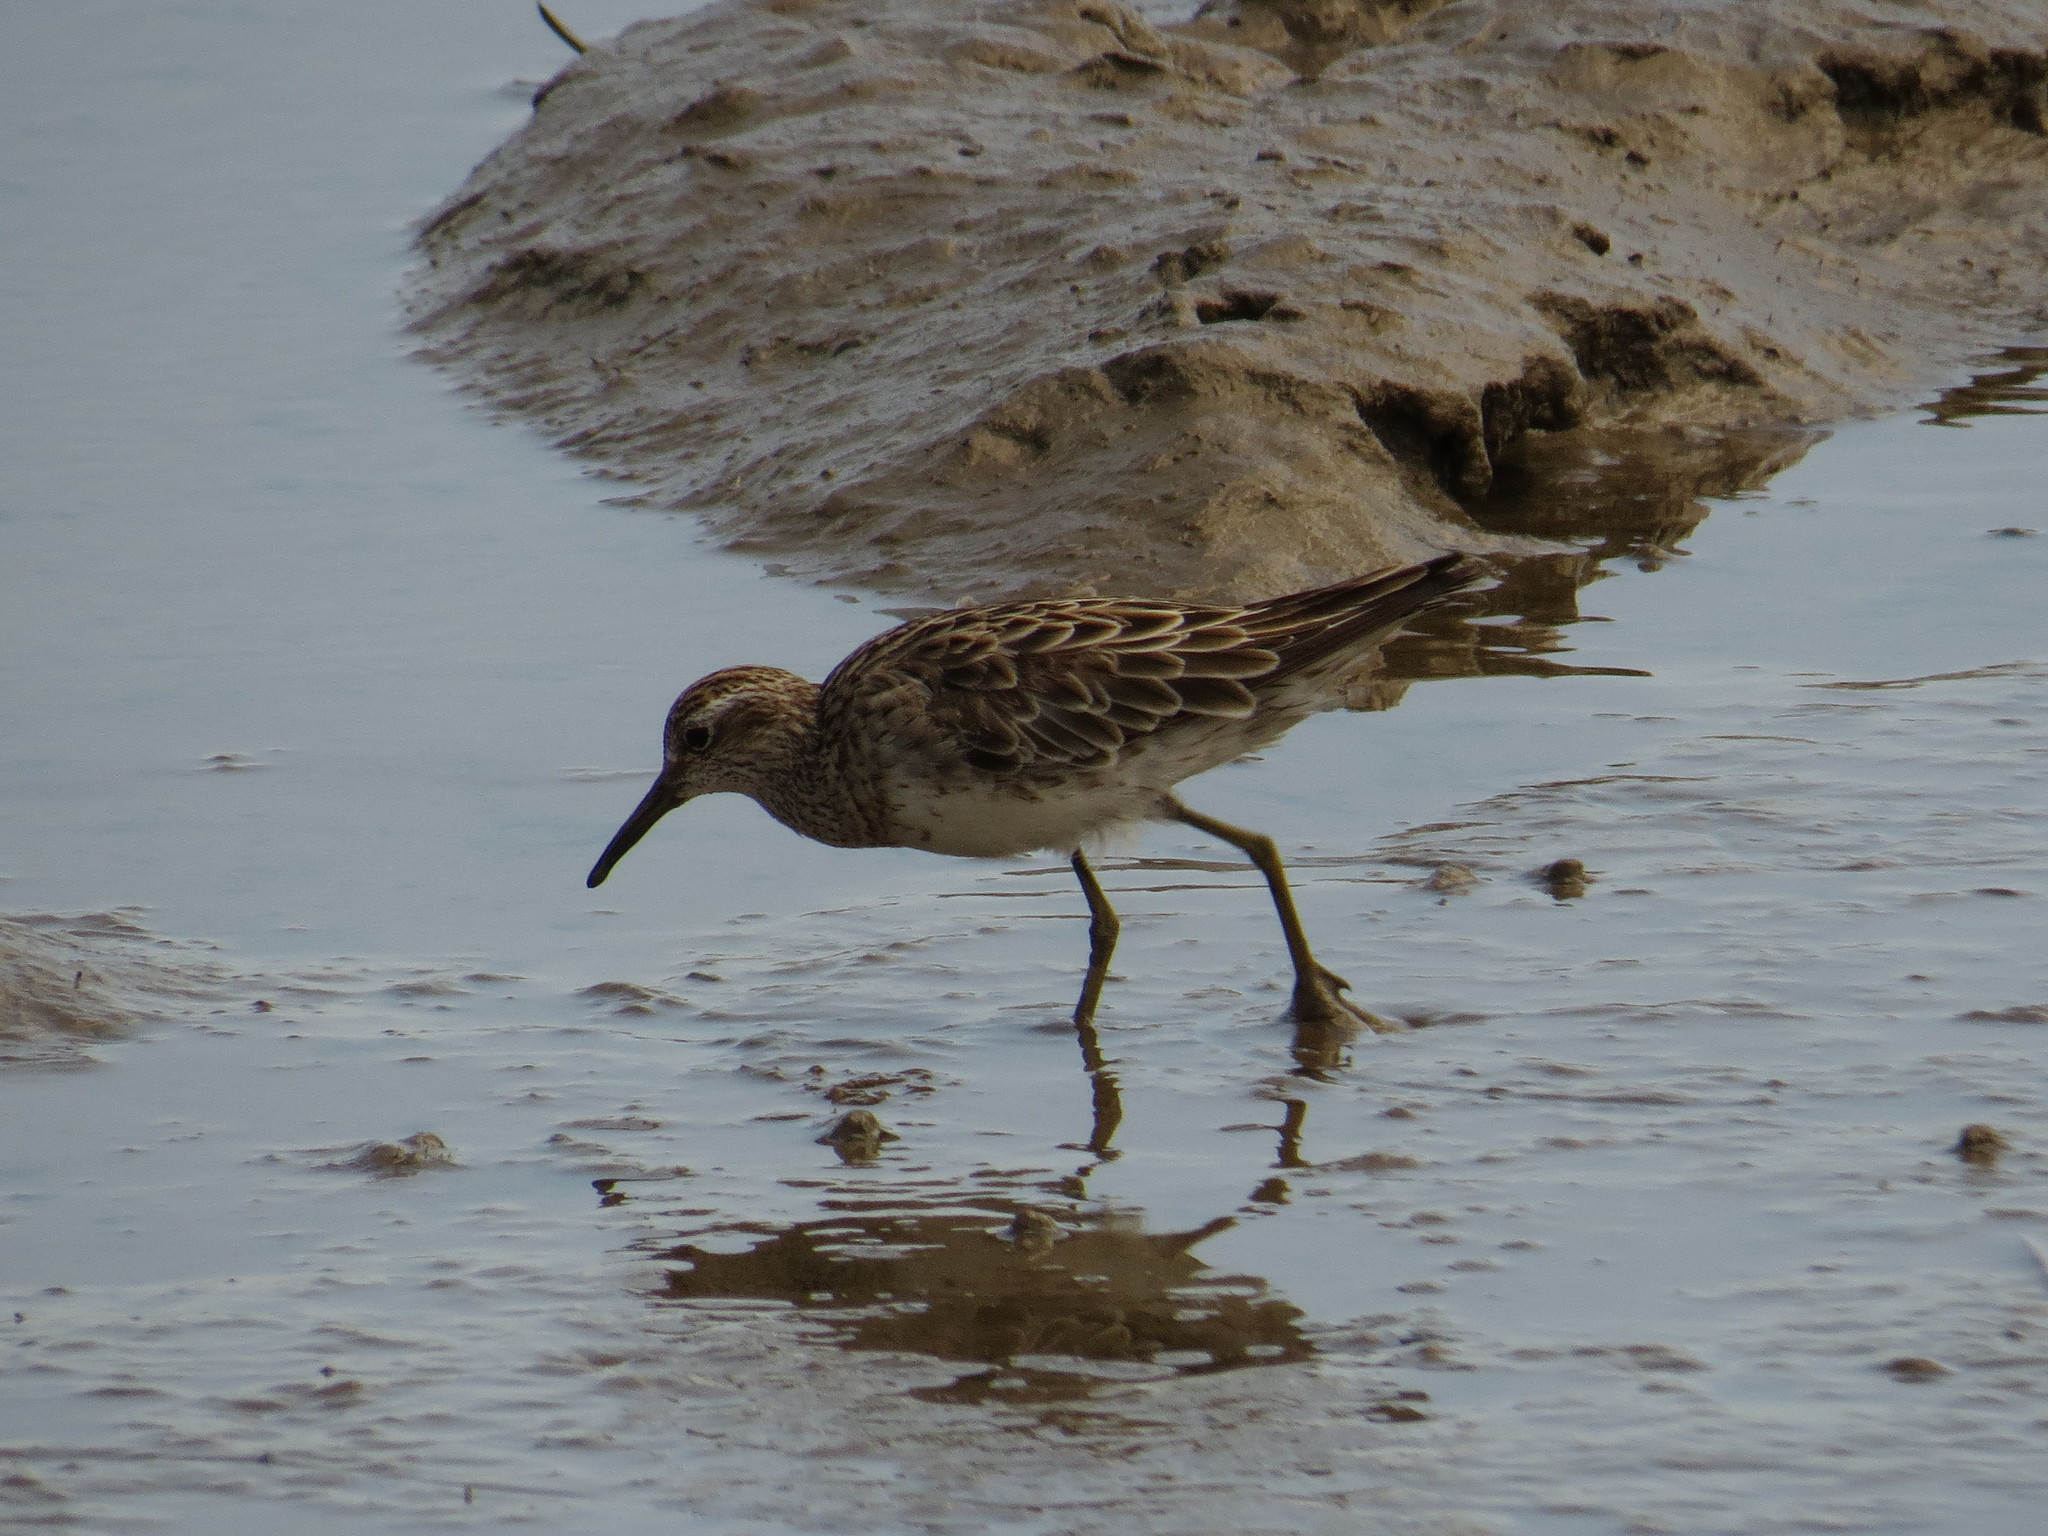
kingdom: Animalia
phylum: Chordata
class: Aves
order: Charadriiformes
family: Scolopacidae
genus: Calidris
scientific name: Calidris acuminata
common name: Sharp-tailed sandpiper
